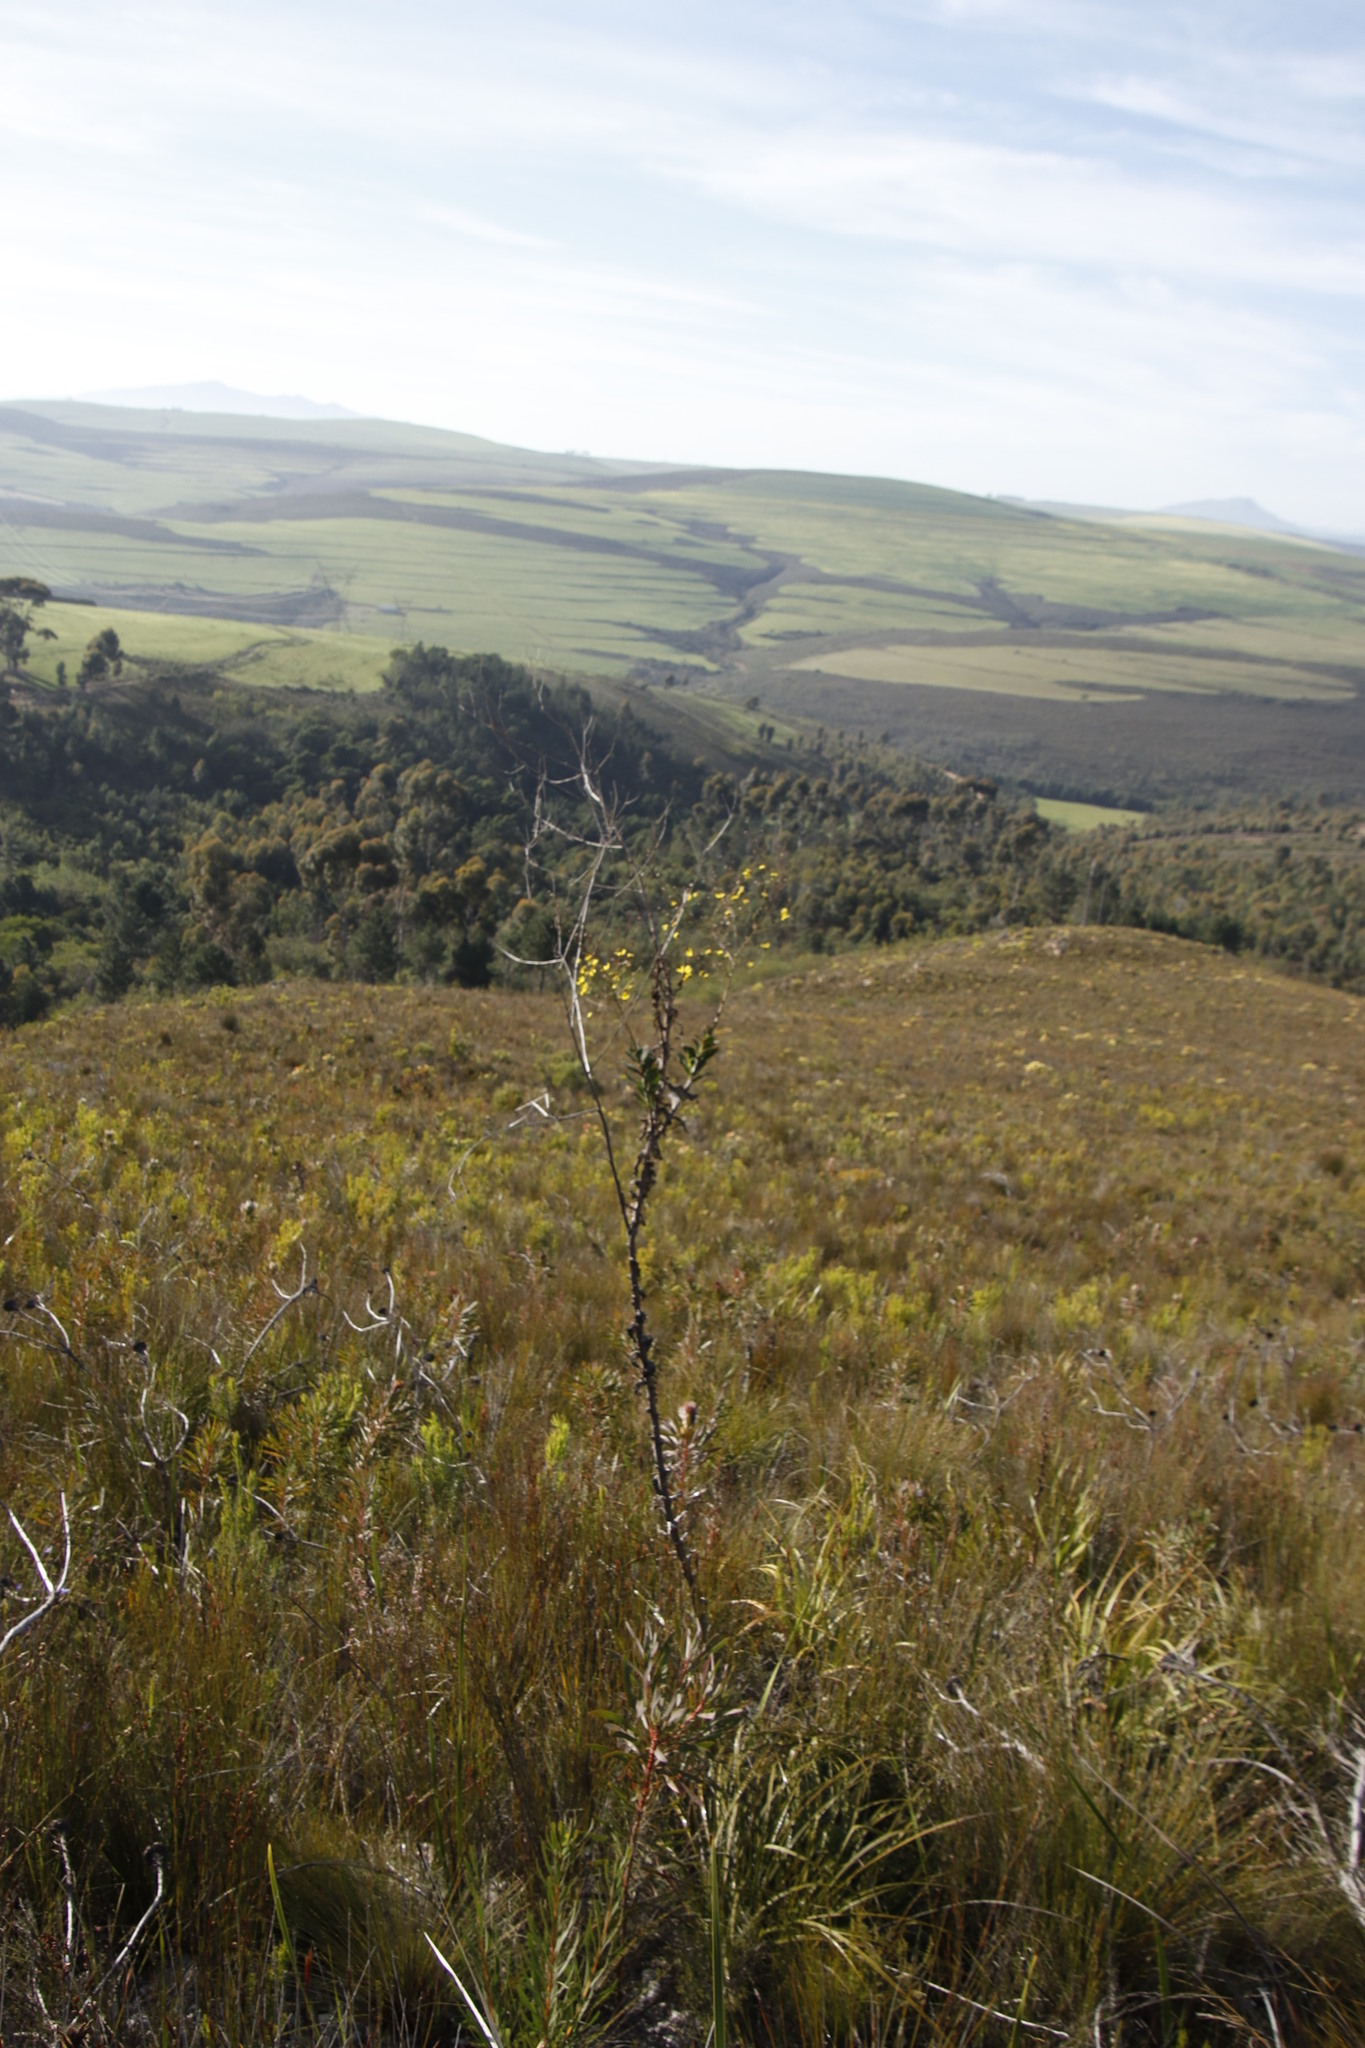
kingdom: Plantae
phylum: Tracheophyta
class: Magnoliopsida
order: Asterales
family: Asteraceae
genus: Othonna
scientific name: Othonna quinquedentata
